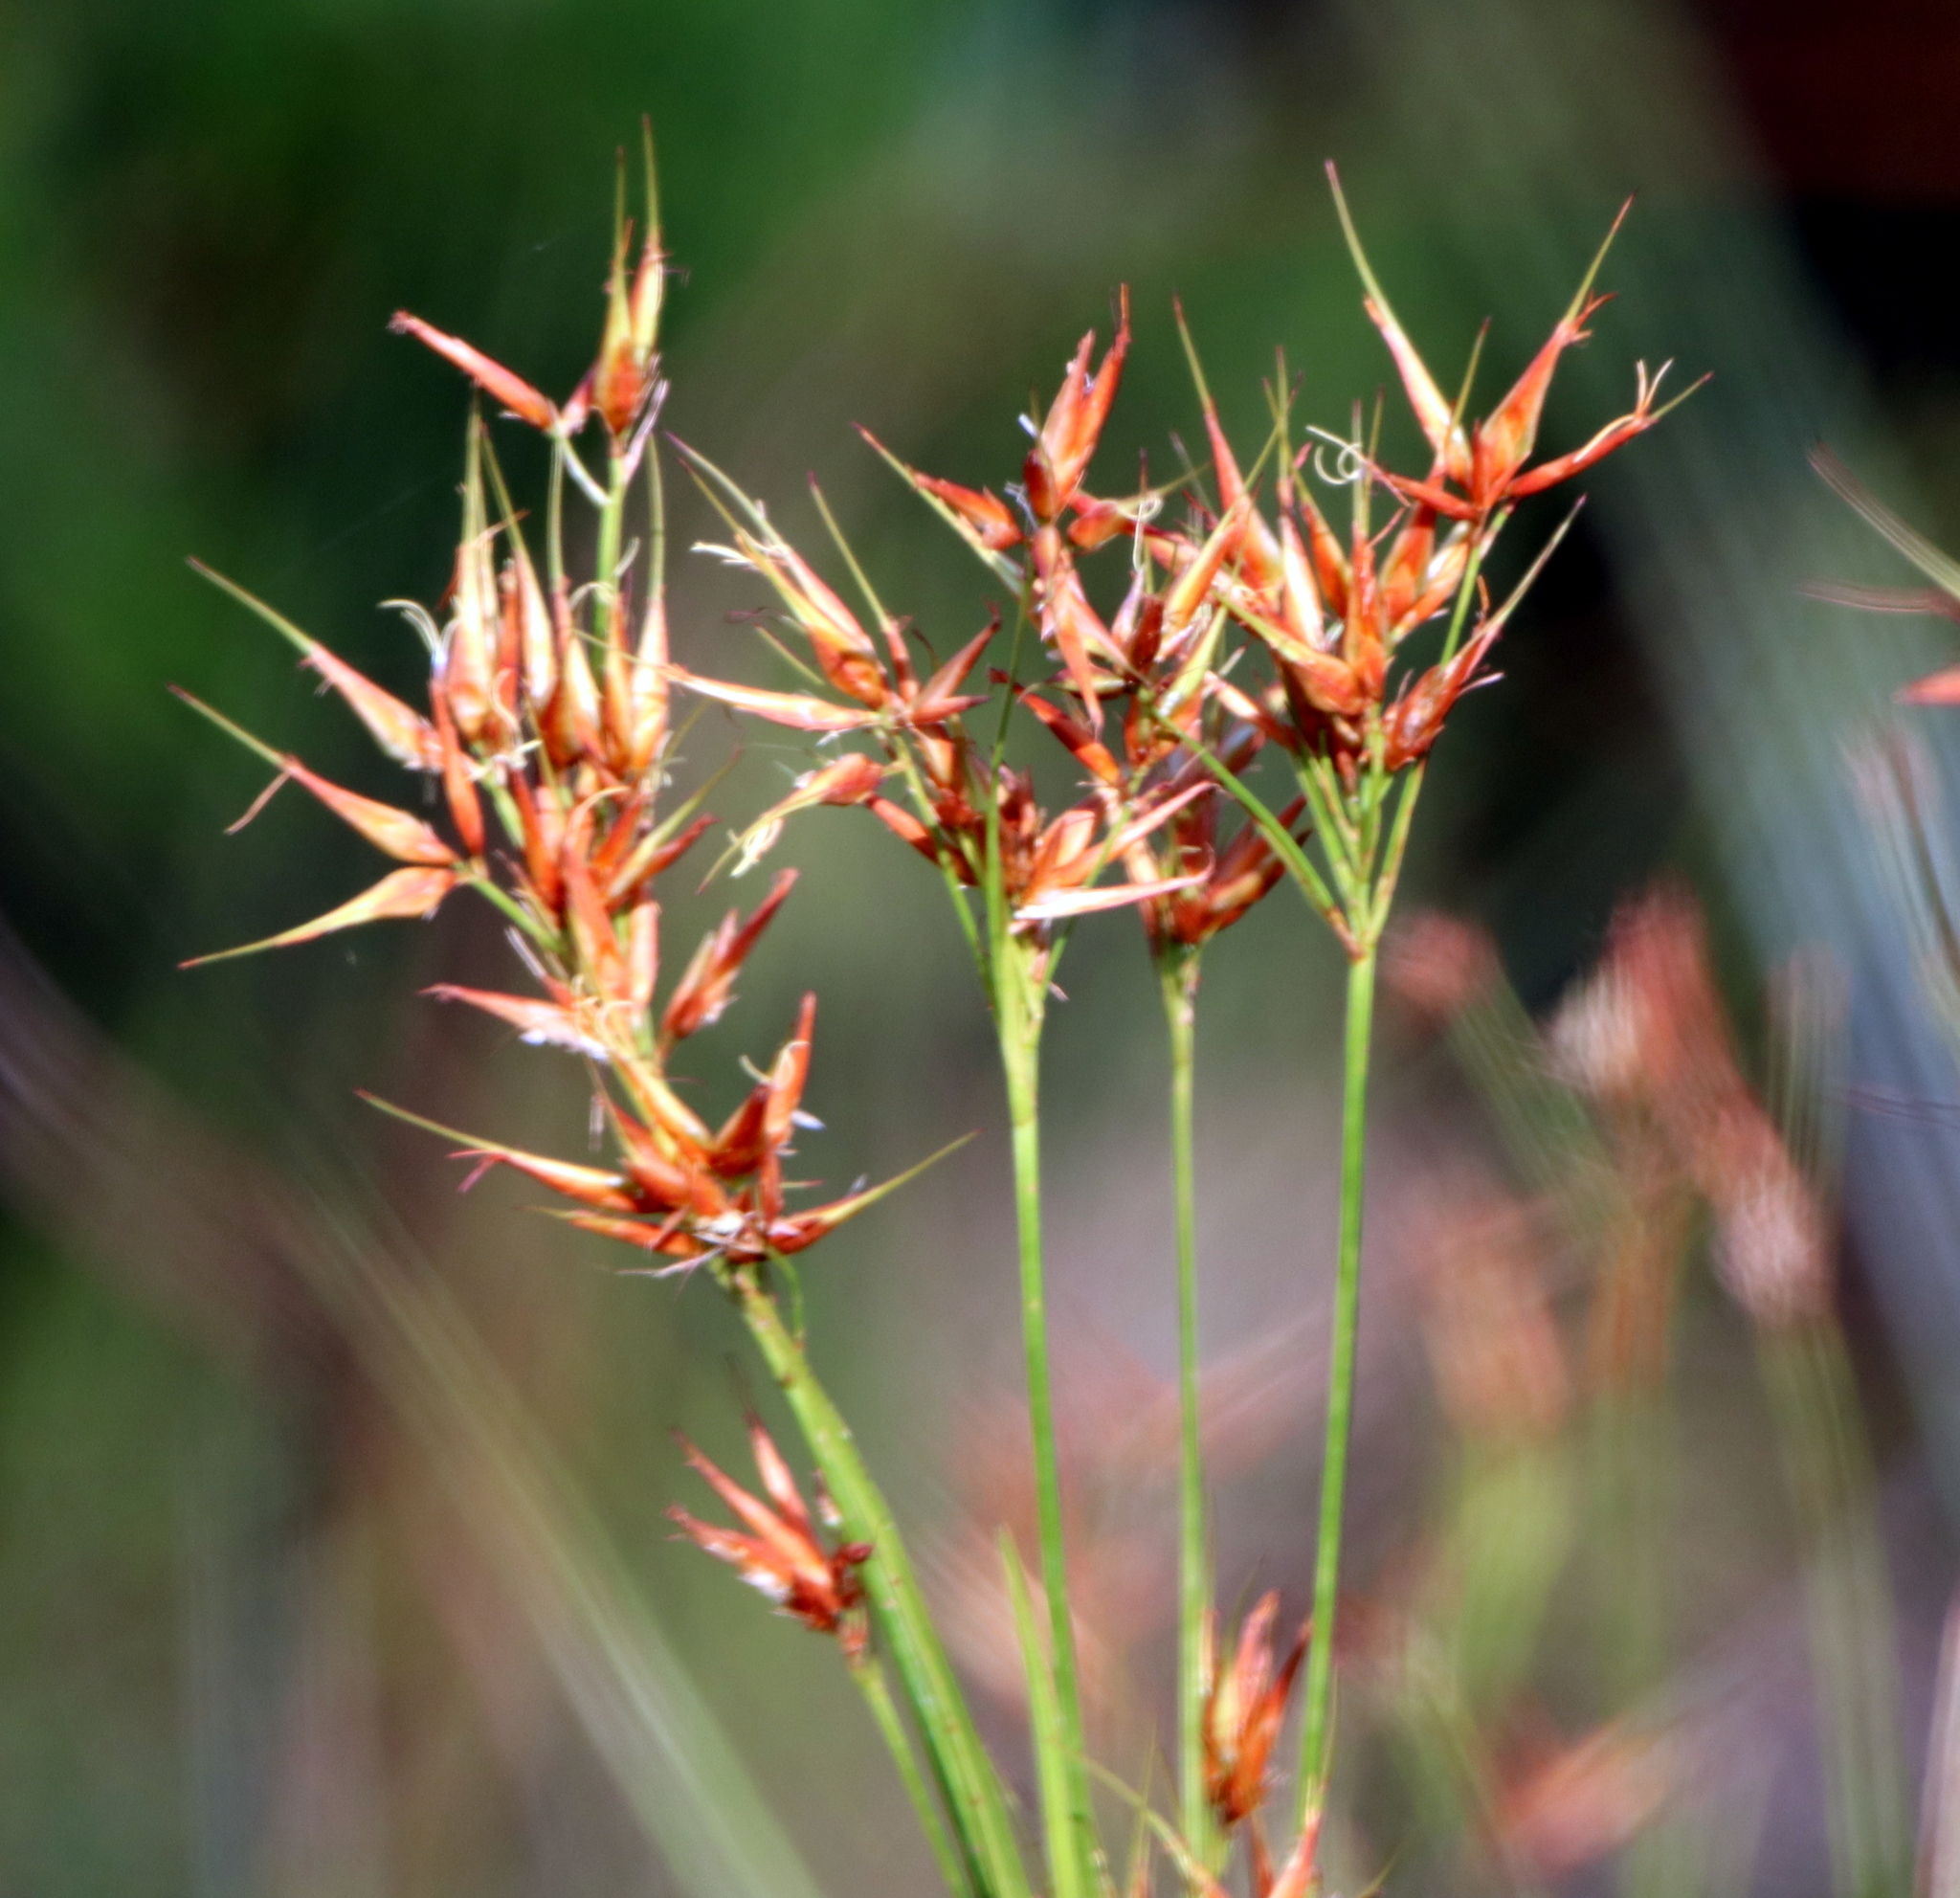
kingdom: Plantae
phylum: Tracheophyta
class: Liliopsida
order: Poales
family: Cyperaceae
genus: Rhynchospora
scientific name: Rhynchospora corniculata
